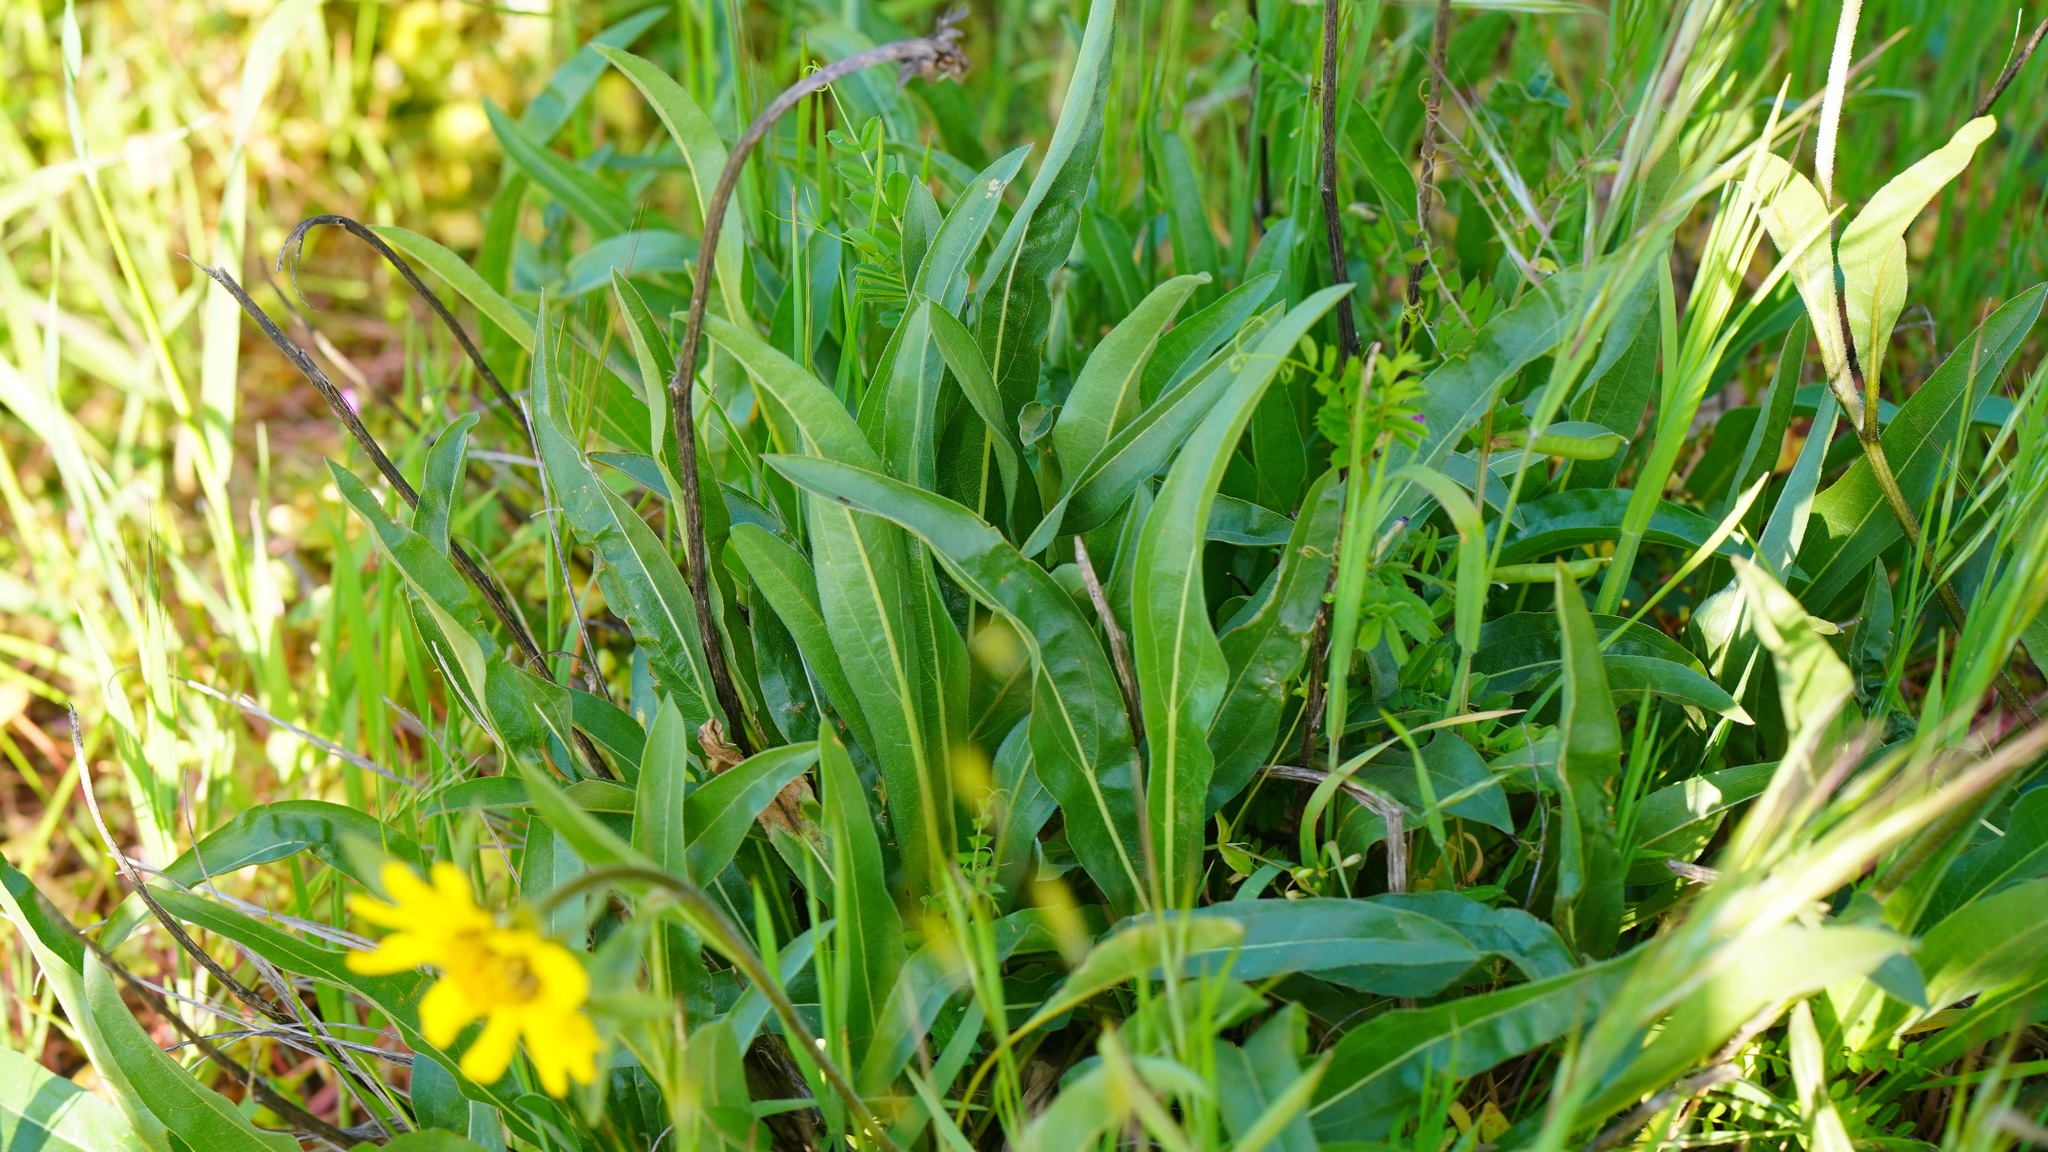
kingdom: Plantae
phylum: Tracheophyta
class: Magnoliopsida
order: Asterales
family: Asteraceae
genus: Helianthella
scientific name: Helianthella castanea
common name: Diablo helianthella
